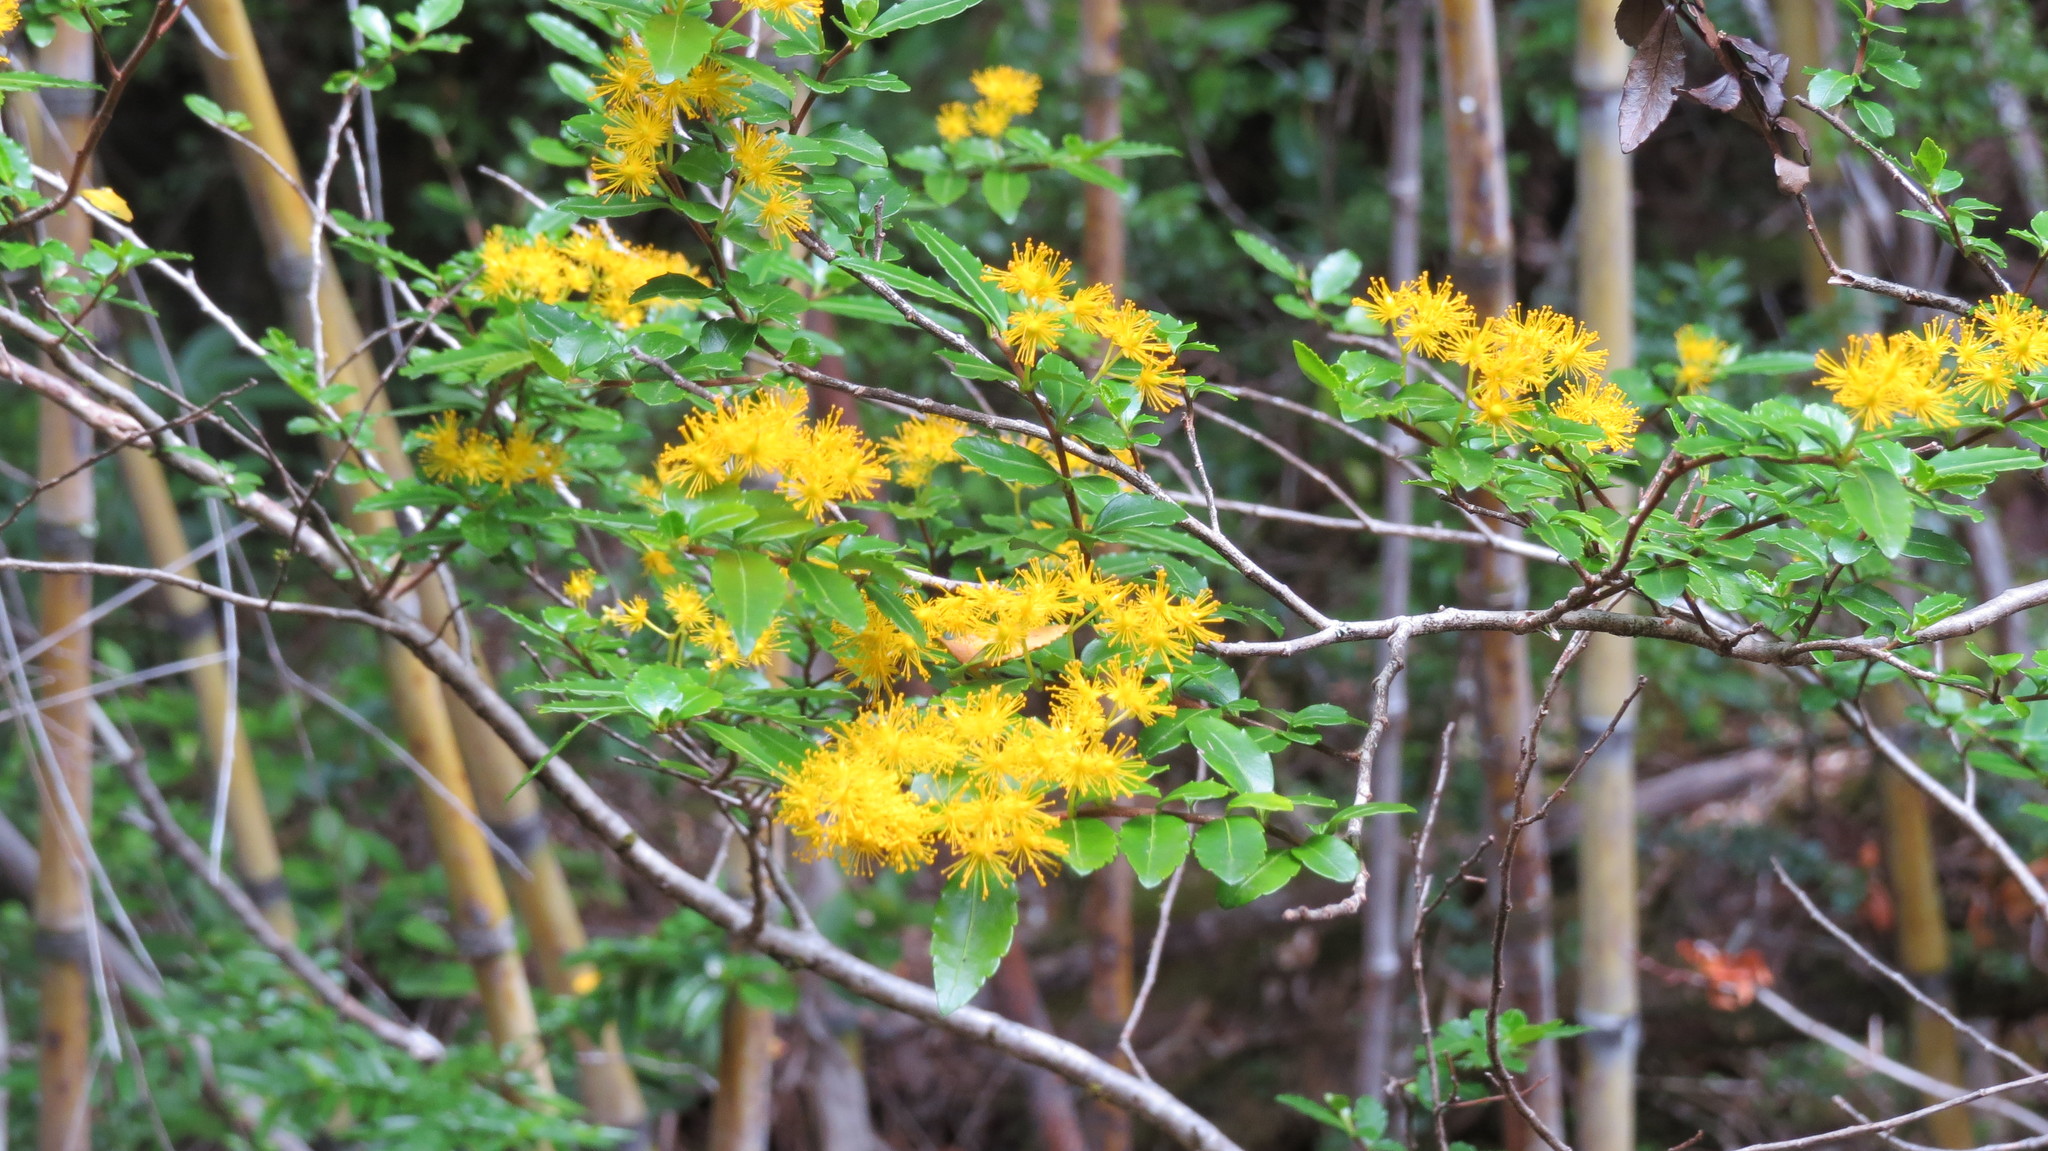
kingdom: Plantae
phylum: Tracheophyta
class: Magnoliopsida
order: Malpighiales
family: Salicaceae
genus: Azara
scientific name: Azara lanceolata
